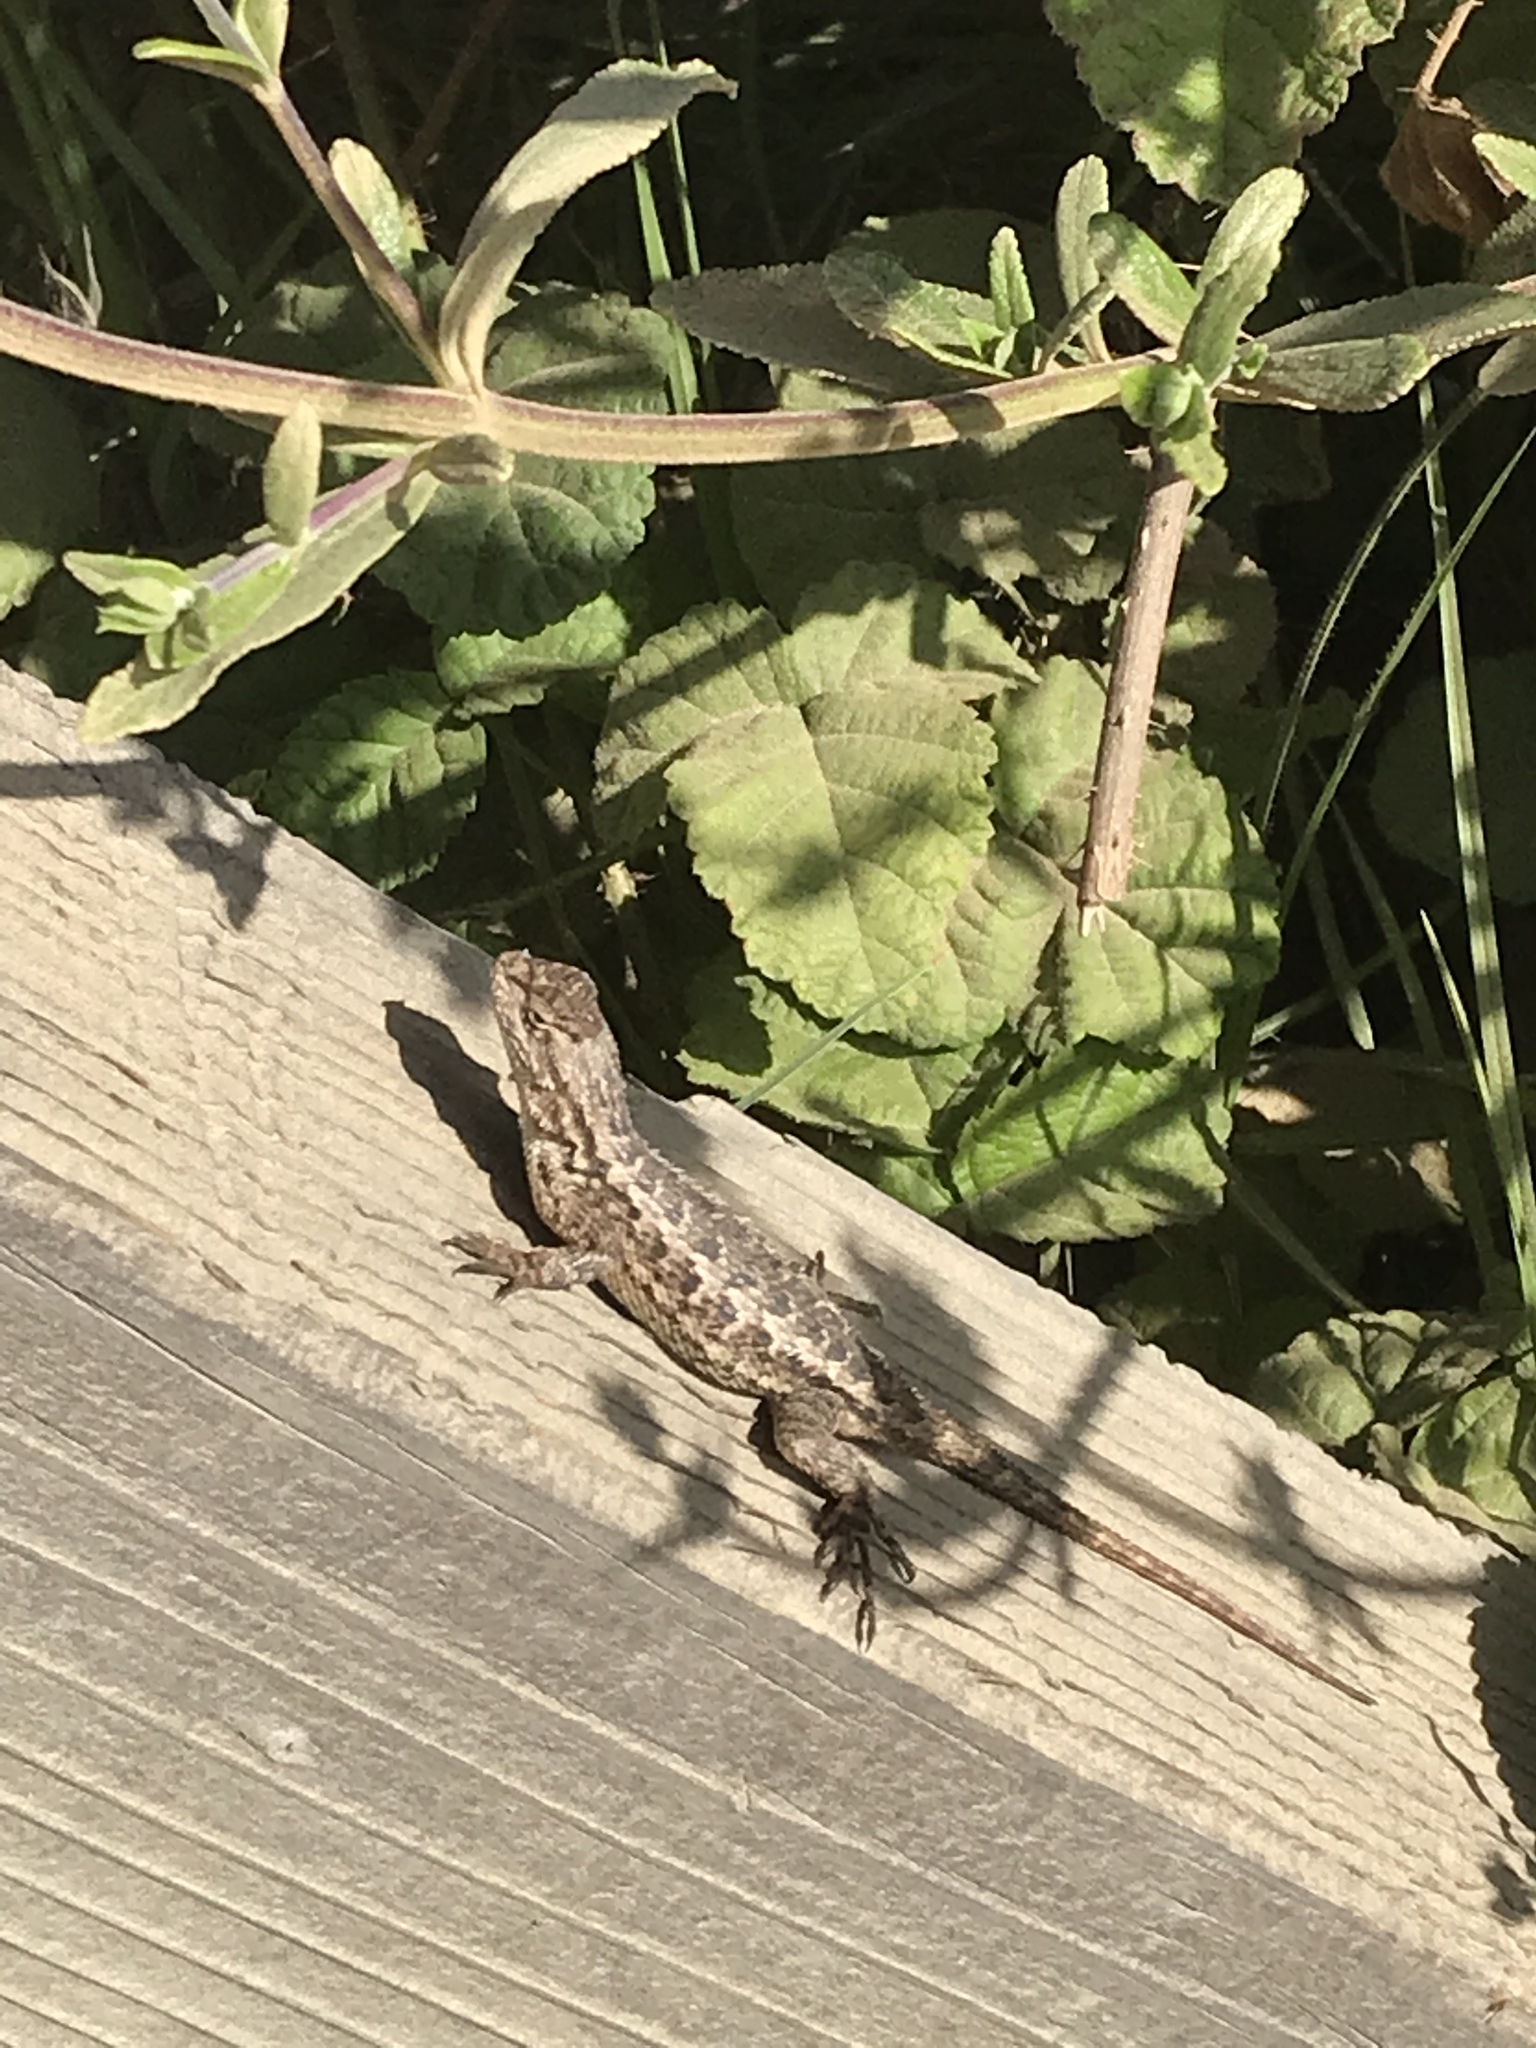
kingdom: Animalia
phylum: Chordata
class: Squamata
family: Phrynosomatidae
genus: Sceloporus
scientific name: Sceloporus occidentalis
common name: Western fence lizard
